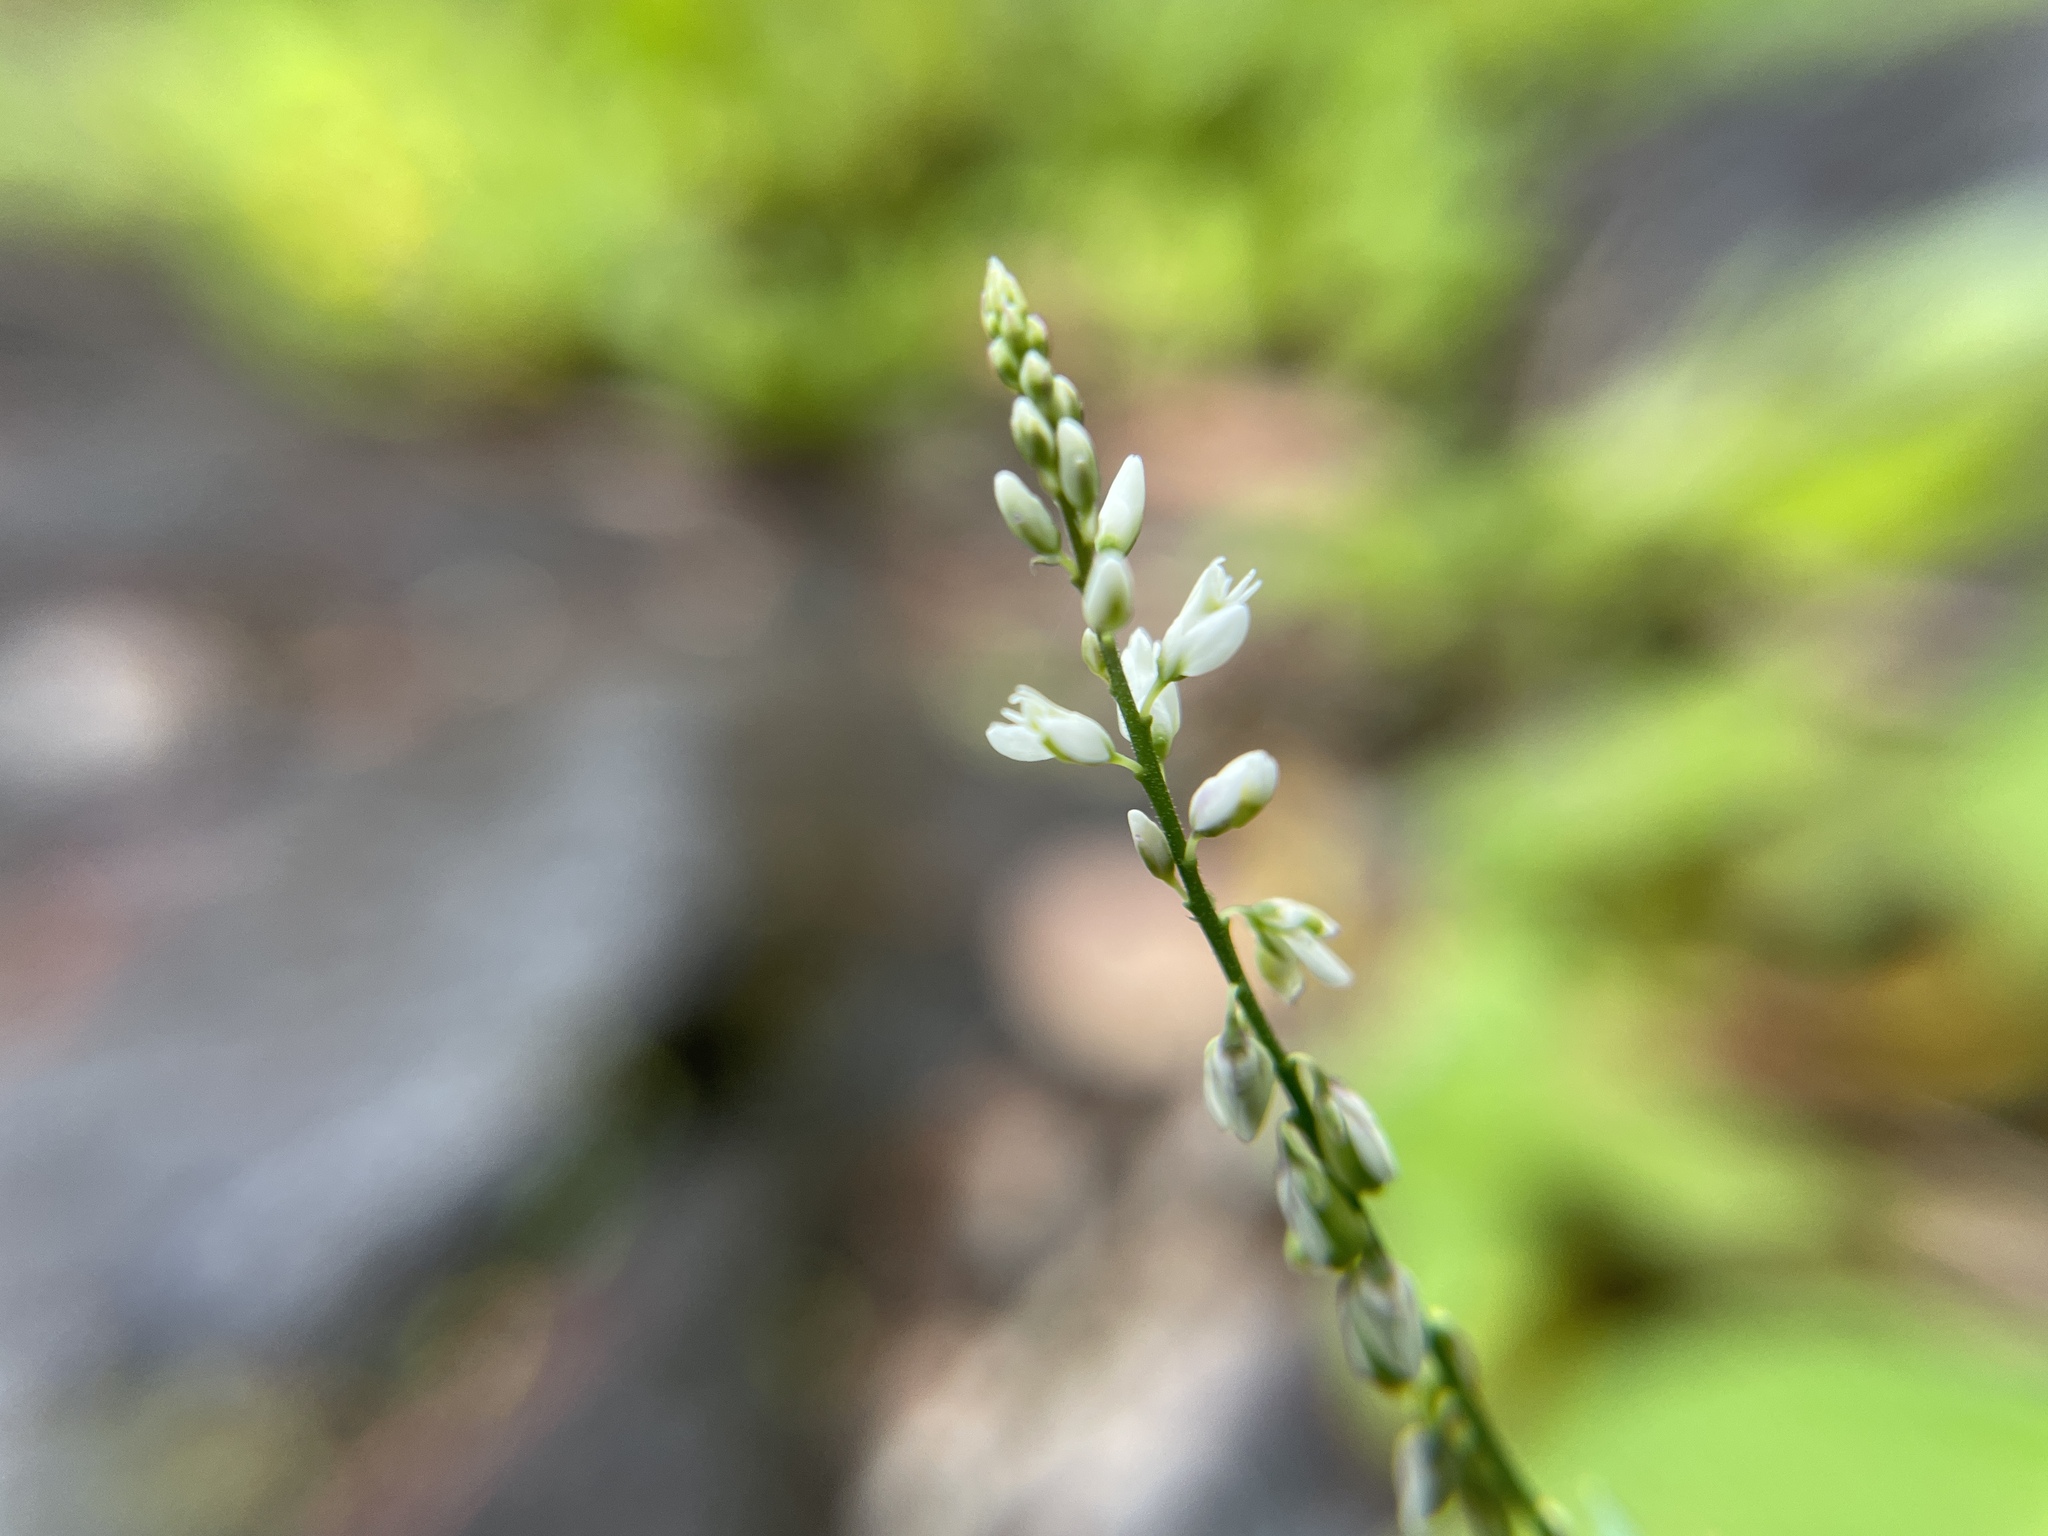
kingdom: Plantae
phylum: Tracheophyta
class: Magnoliopsida
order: Fabales
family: Polygalaceae
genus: Polygala
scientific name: Polygala paniculata
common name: Orosne
